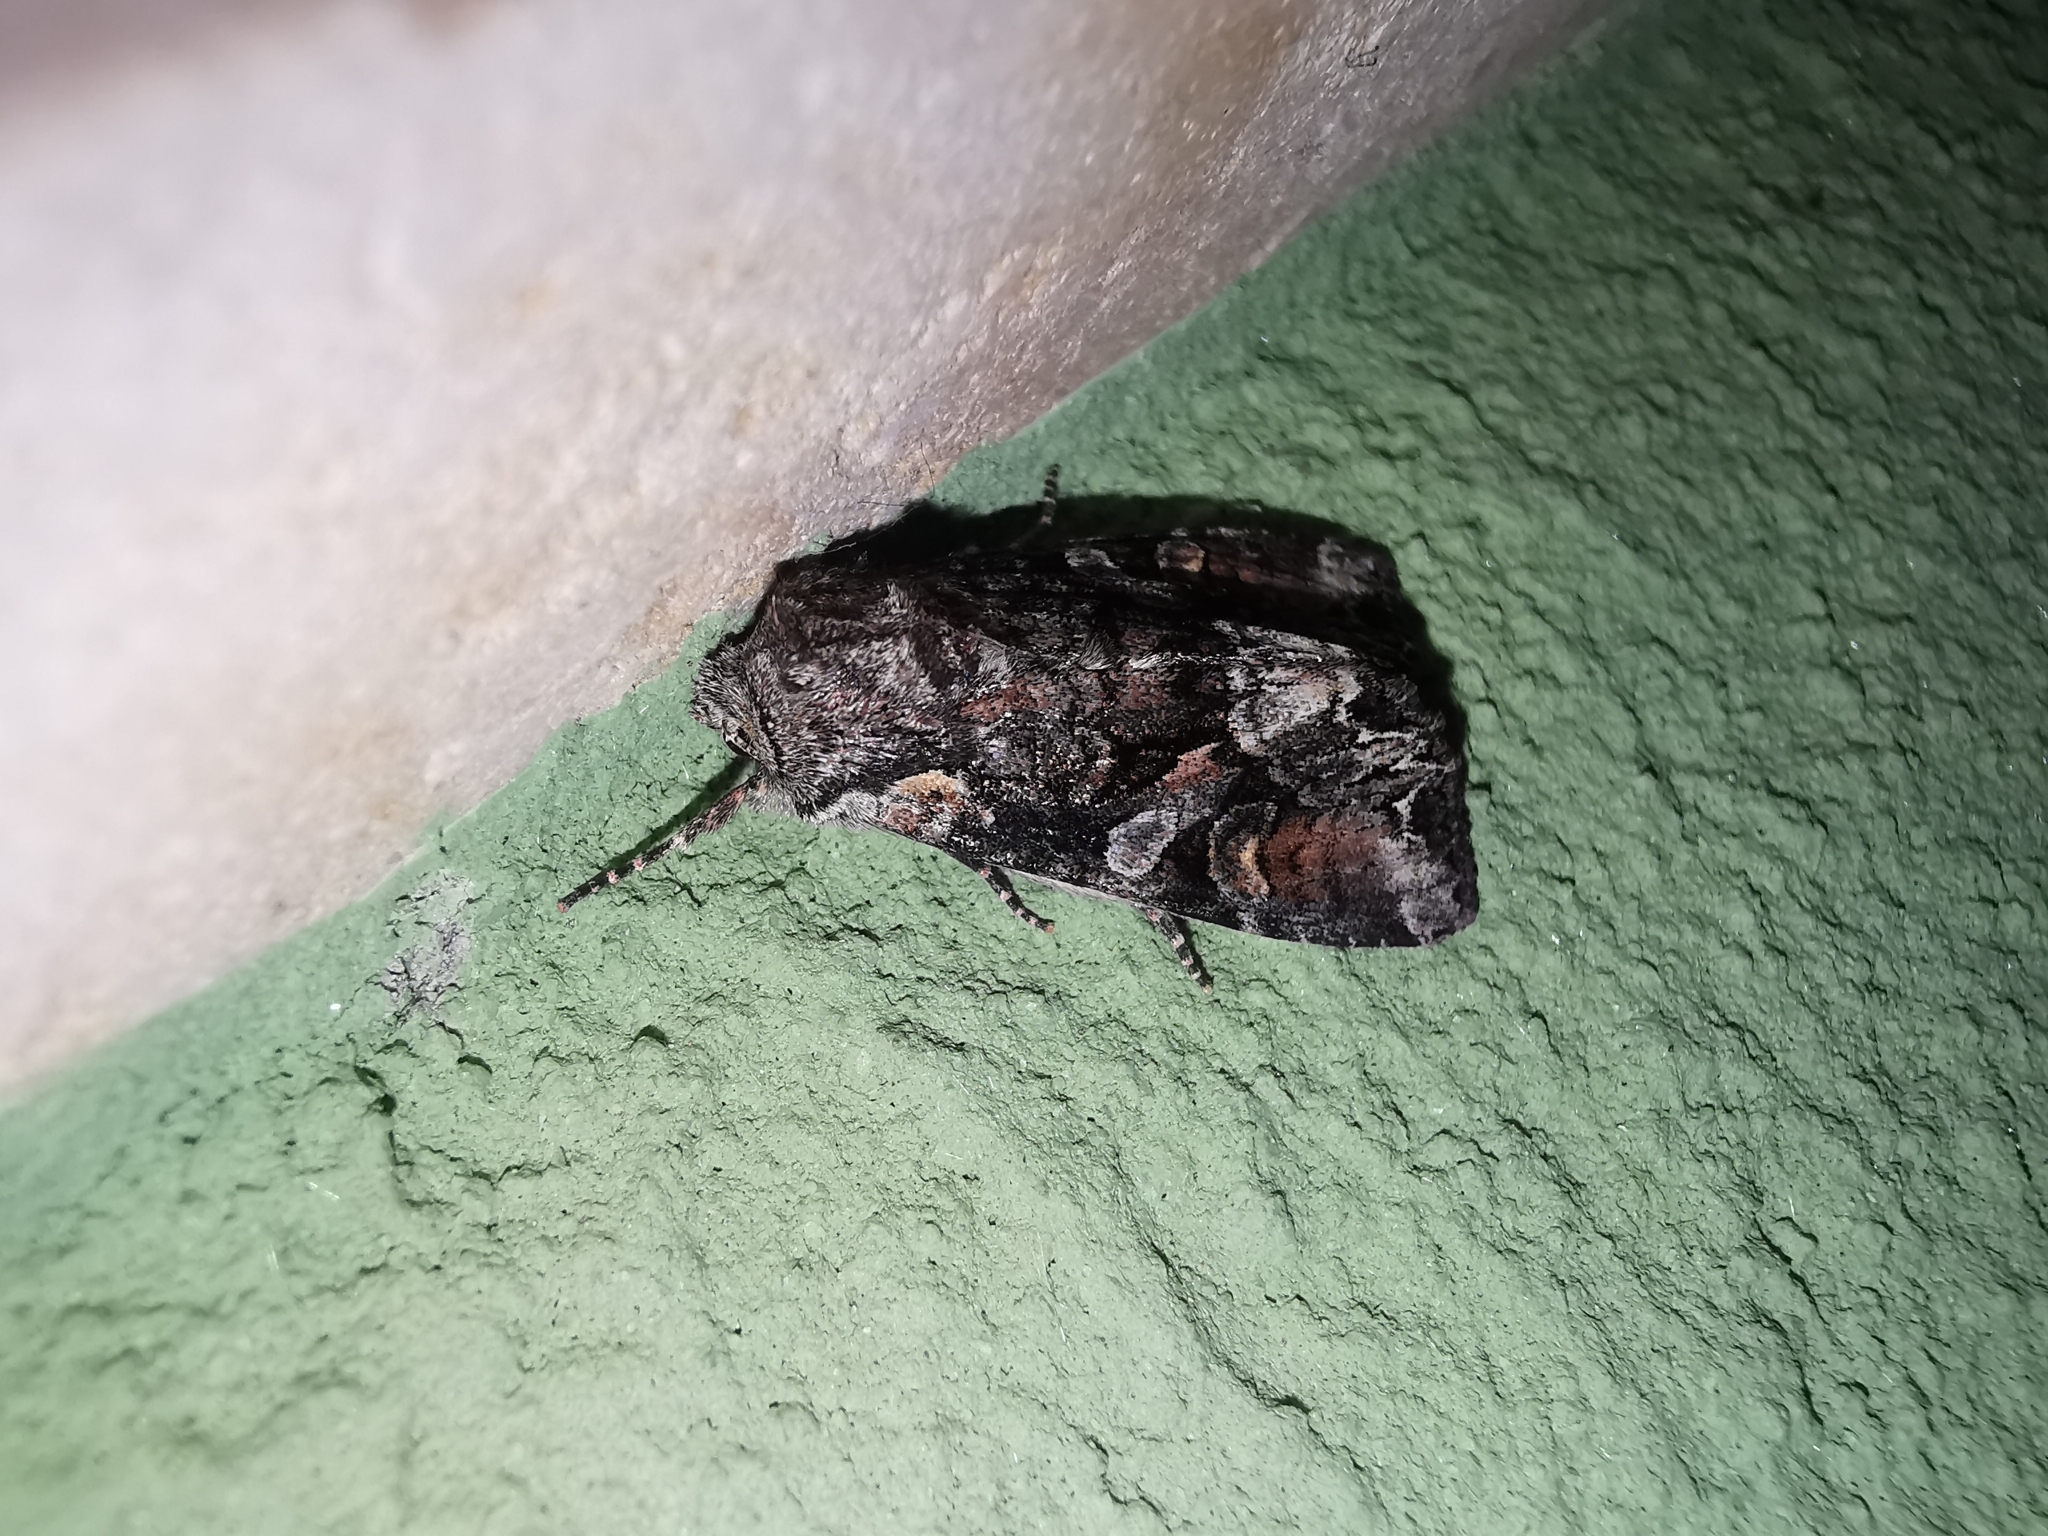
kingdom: Animalia
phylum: Arthropoda
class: Insecta
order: Lepidoptera
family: Noctuidae
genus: Lacanobia
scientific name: Lacanobia contigua
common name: Beautiful brocade
